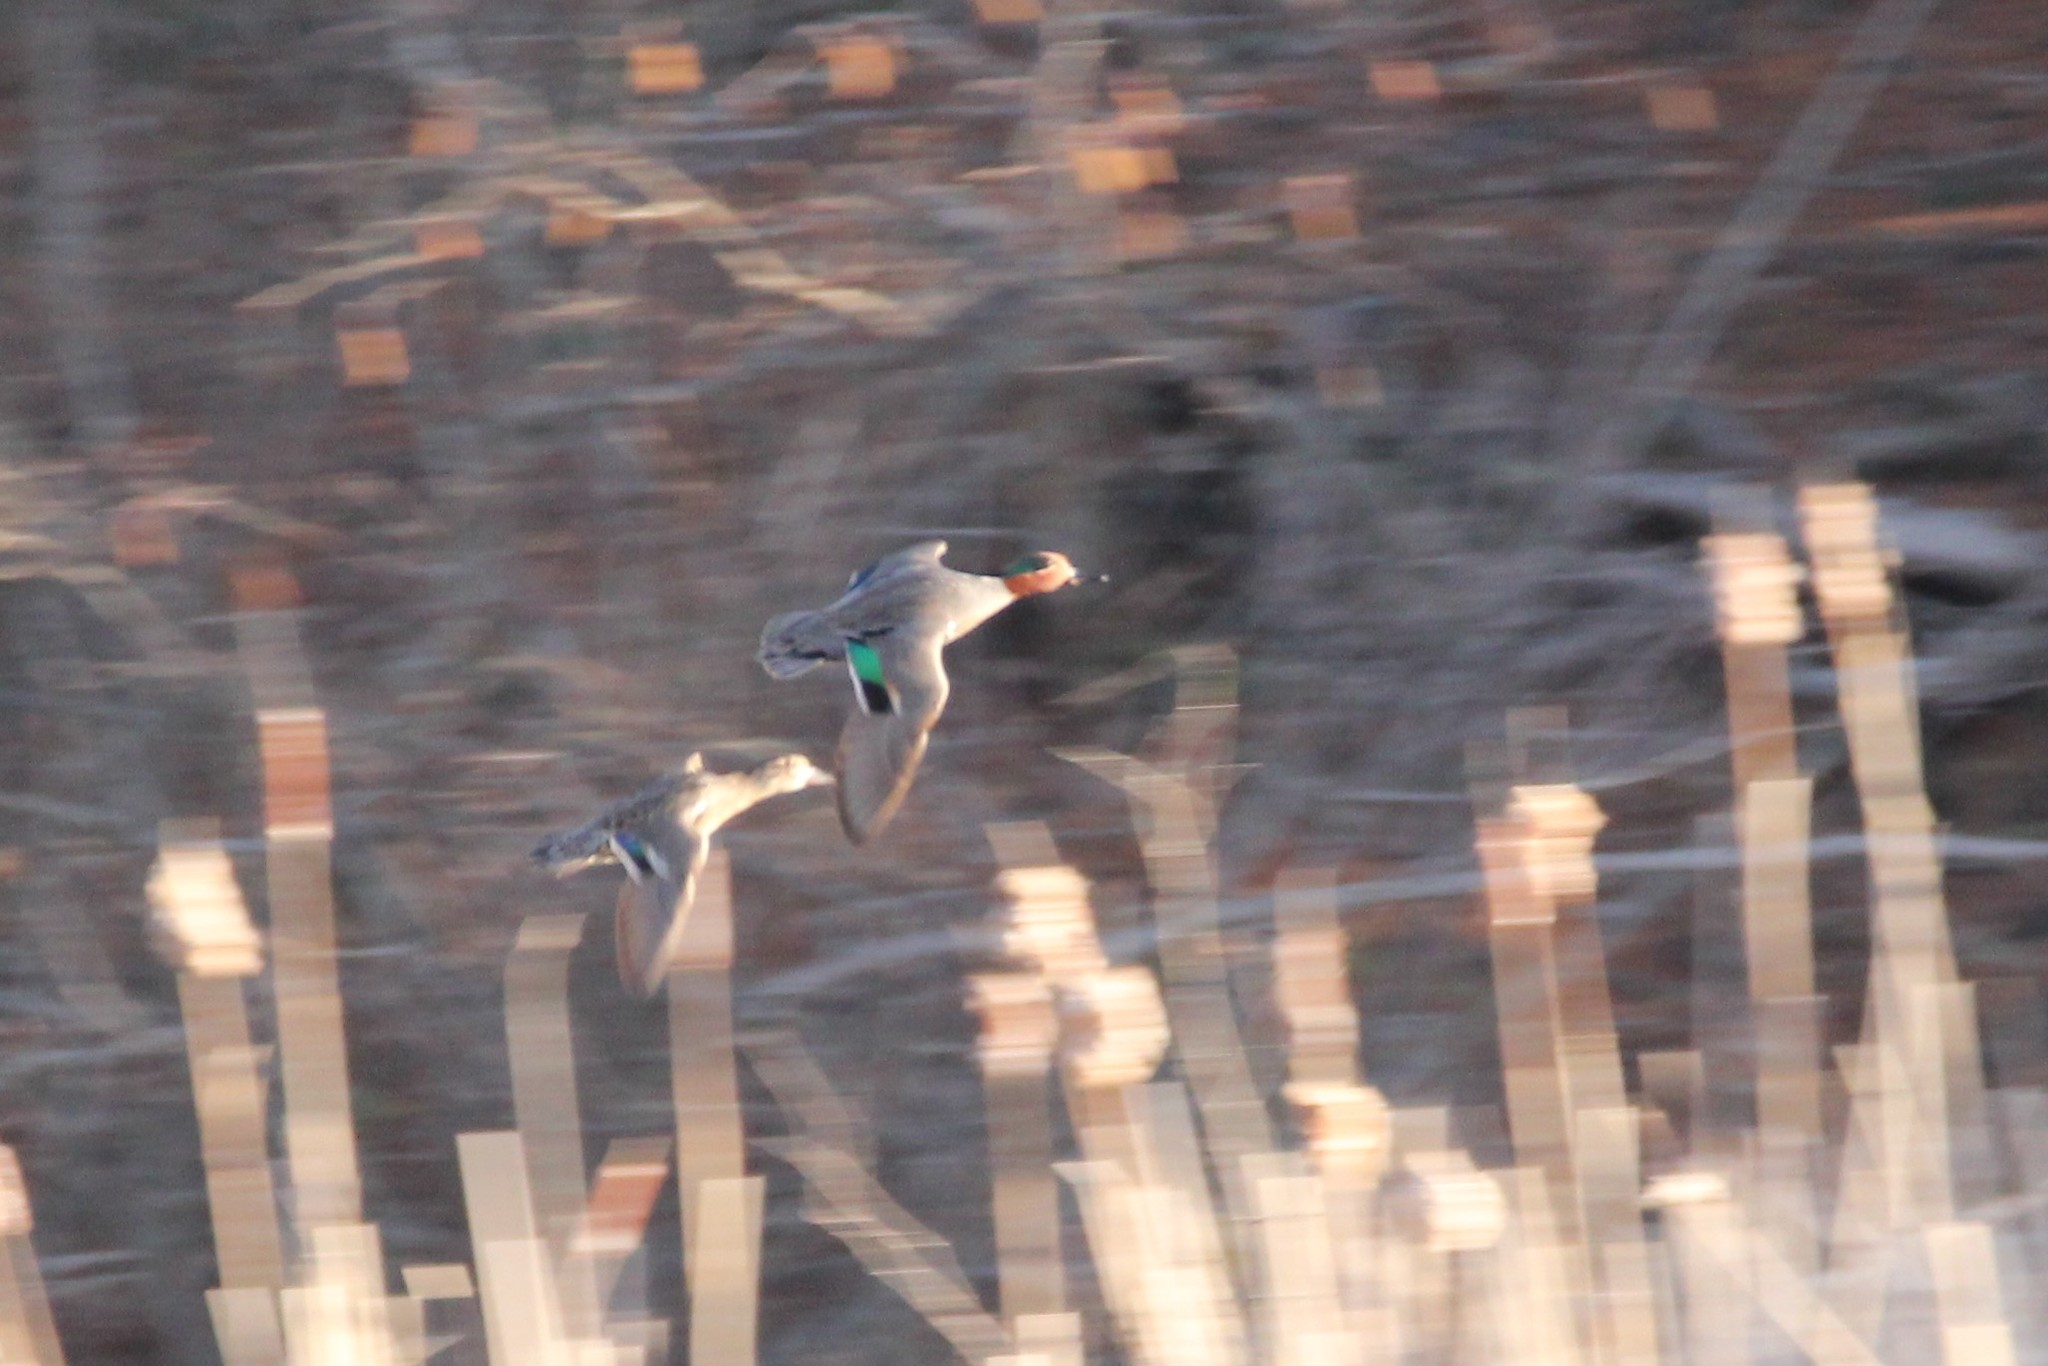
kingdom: Animalia
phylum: Chordata
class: Aves
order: Anseriformes
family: Anatidae
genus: Anas
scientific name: Anas crecca
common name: Eurasian teal
